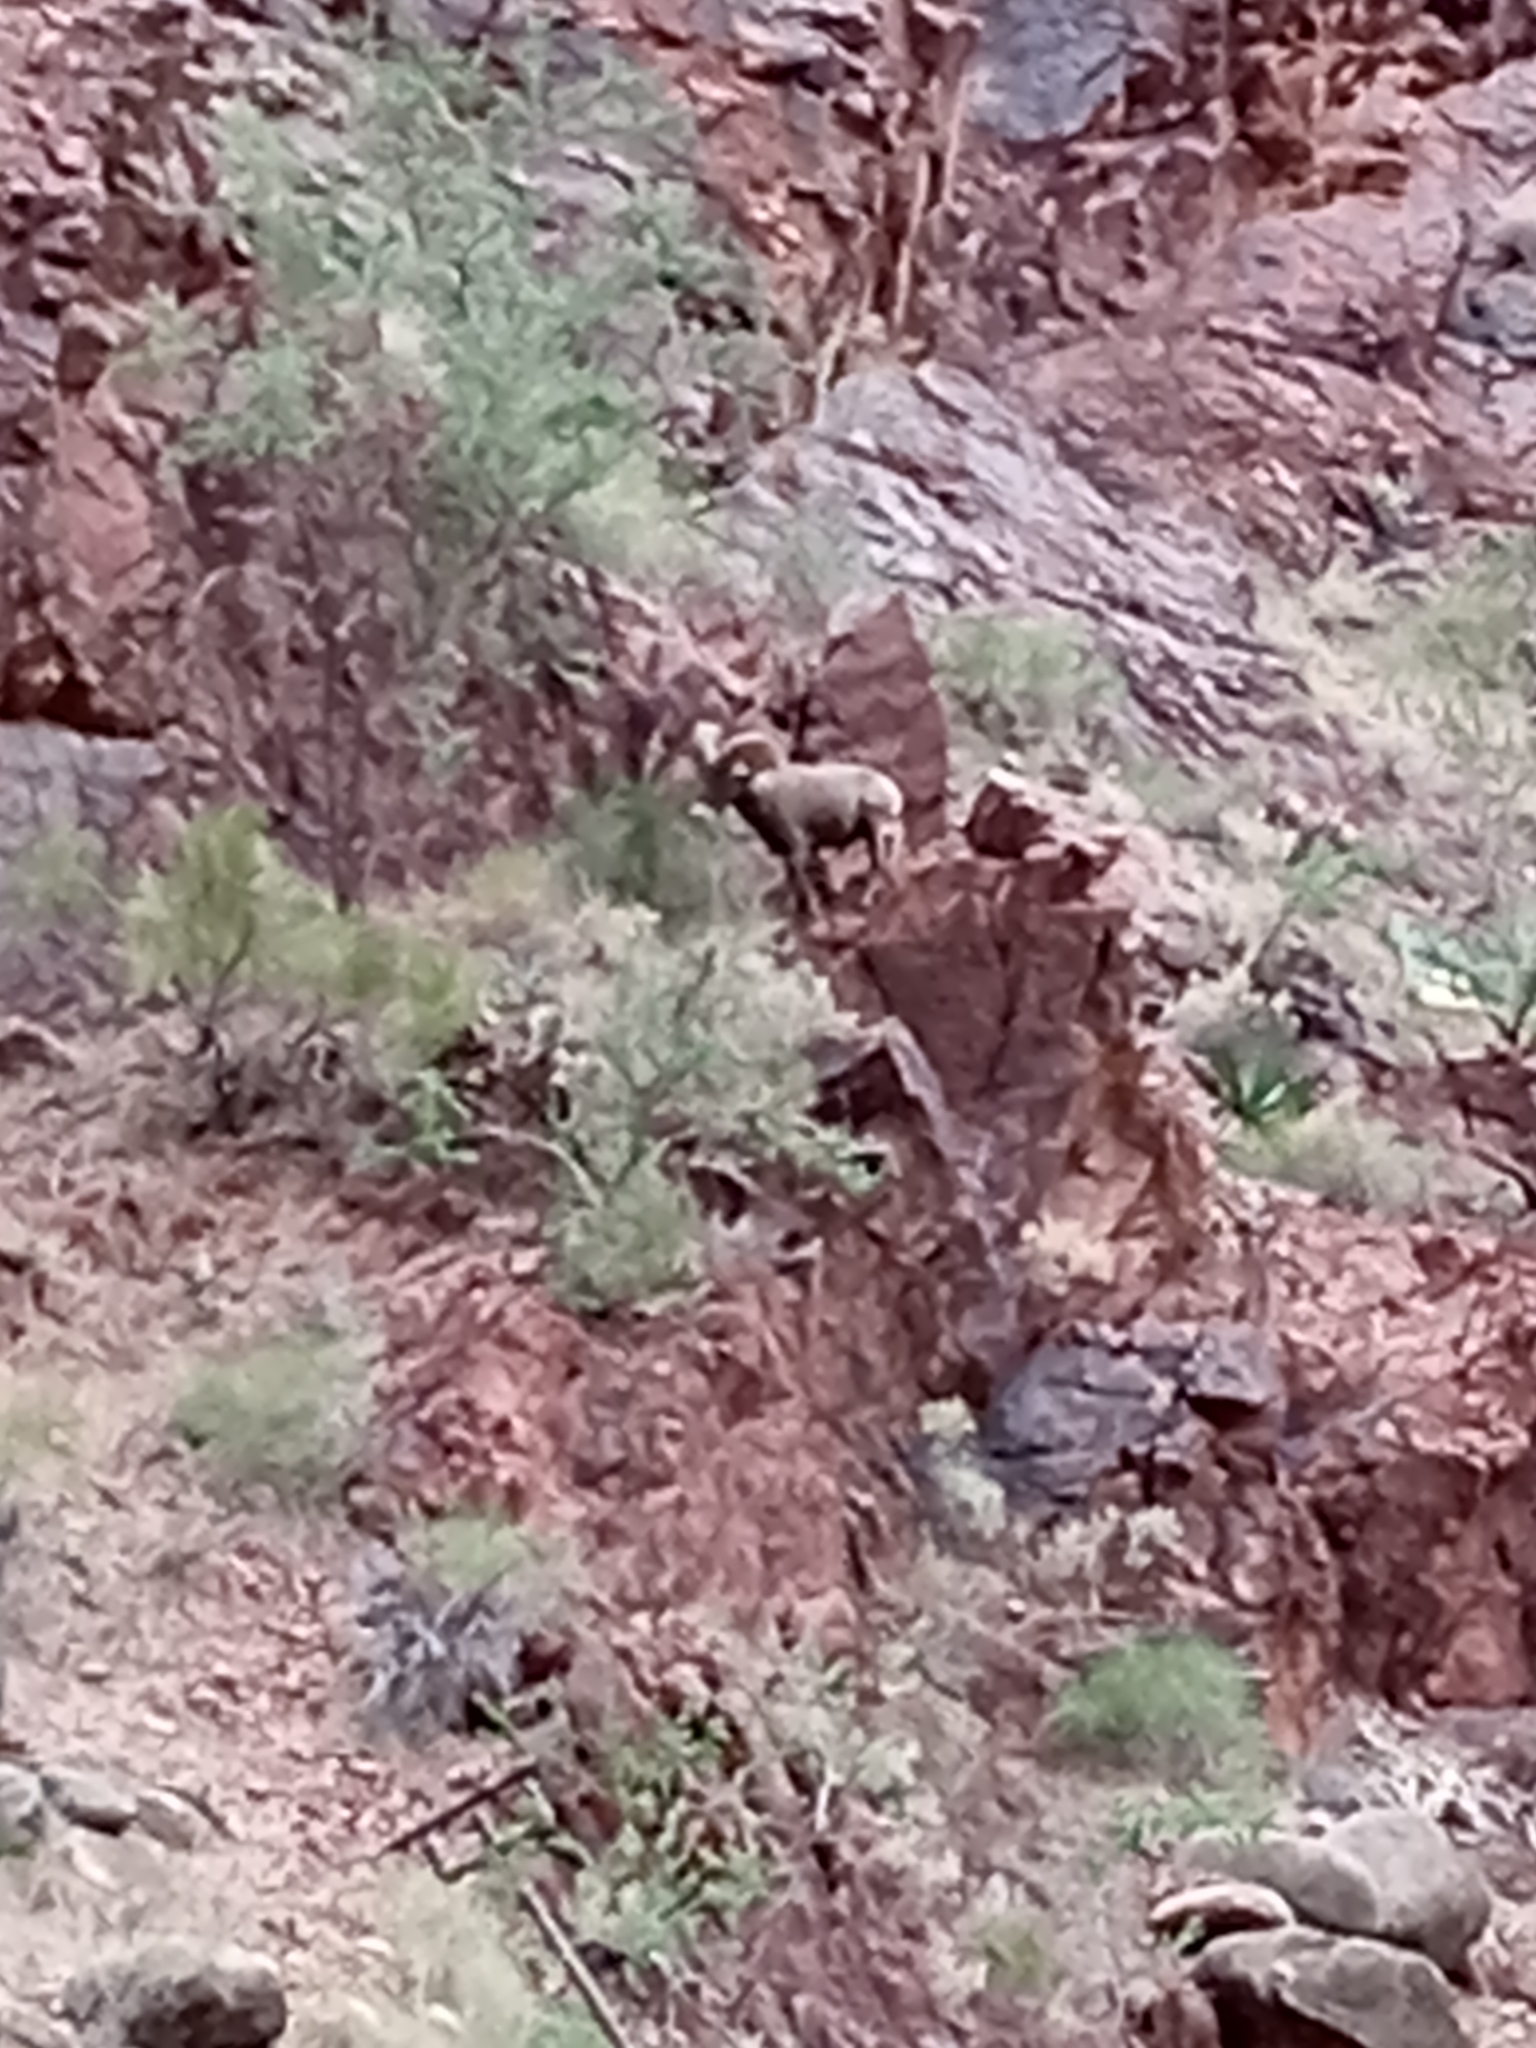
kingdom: Animalia
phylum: Chordata
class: Mammalia
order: Artiodactyla
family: Bovidae
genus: Ovis
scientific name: Ovis canadensis
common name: Bighorn sheep
